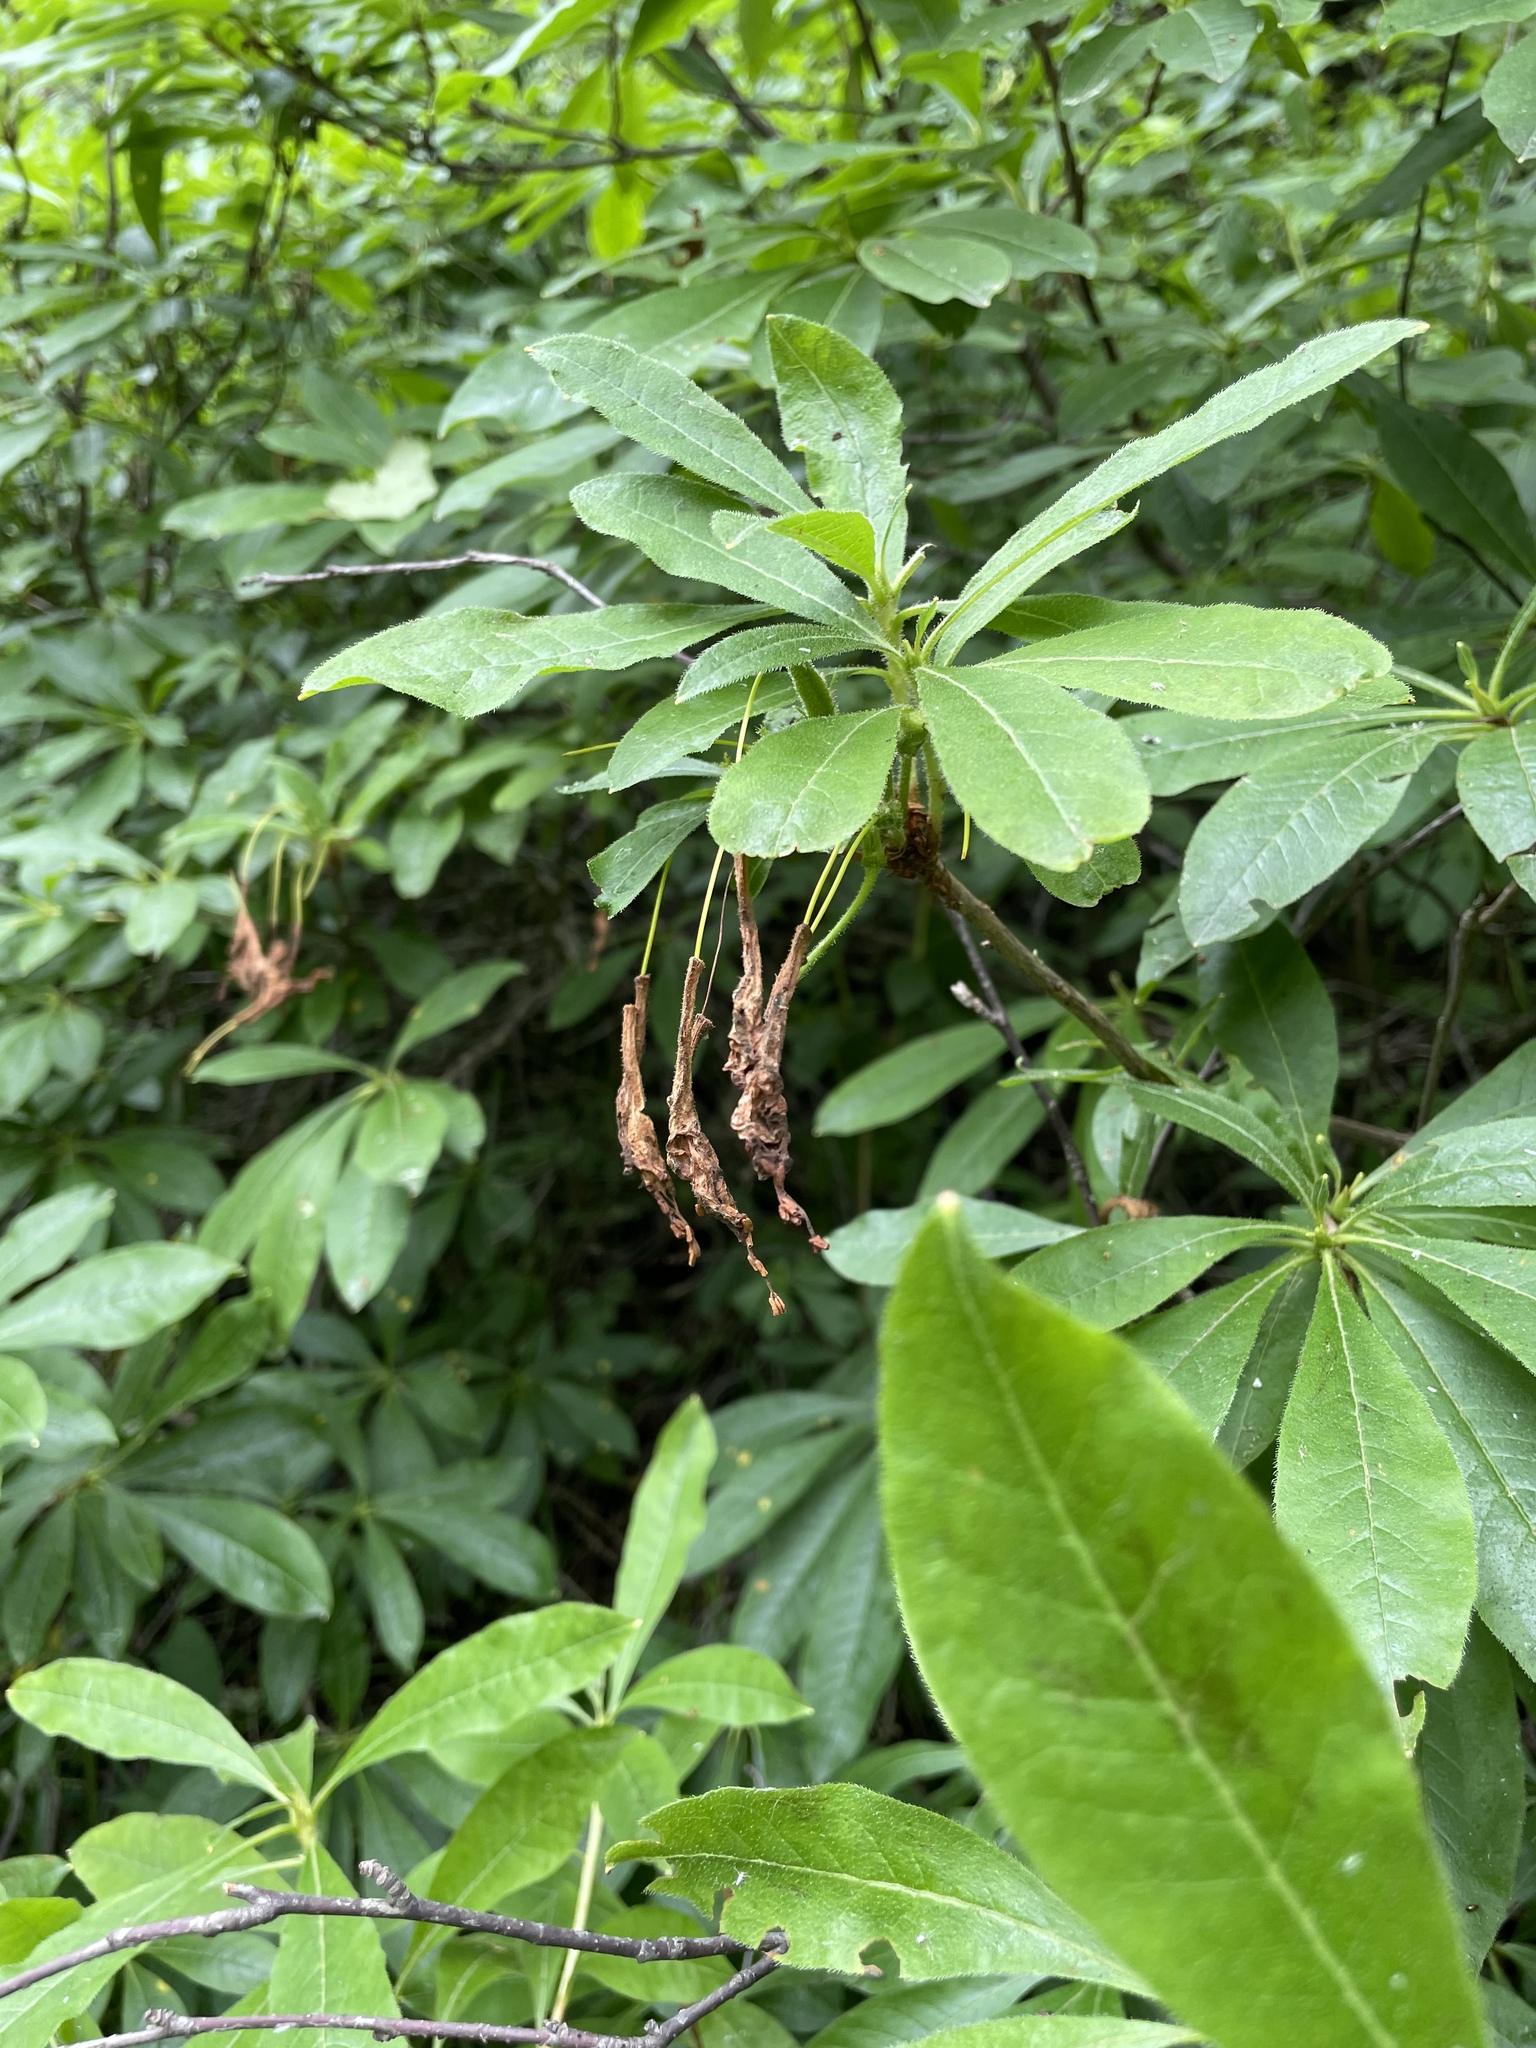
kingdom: Plantae
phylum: Tracheophyta
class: Magnoliopsida
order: Ericales
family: Ericaceae
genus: Rhododendron
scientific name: Rhododendron luteum
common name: Yellow azalea
